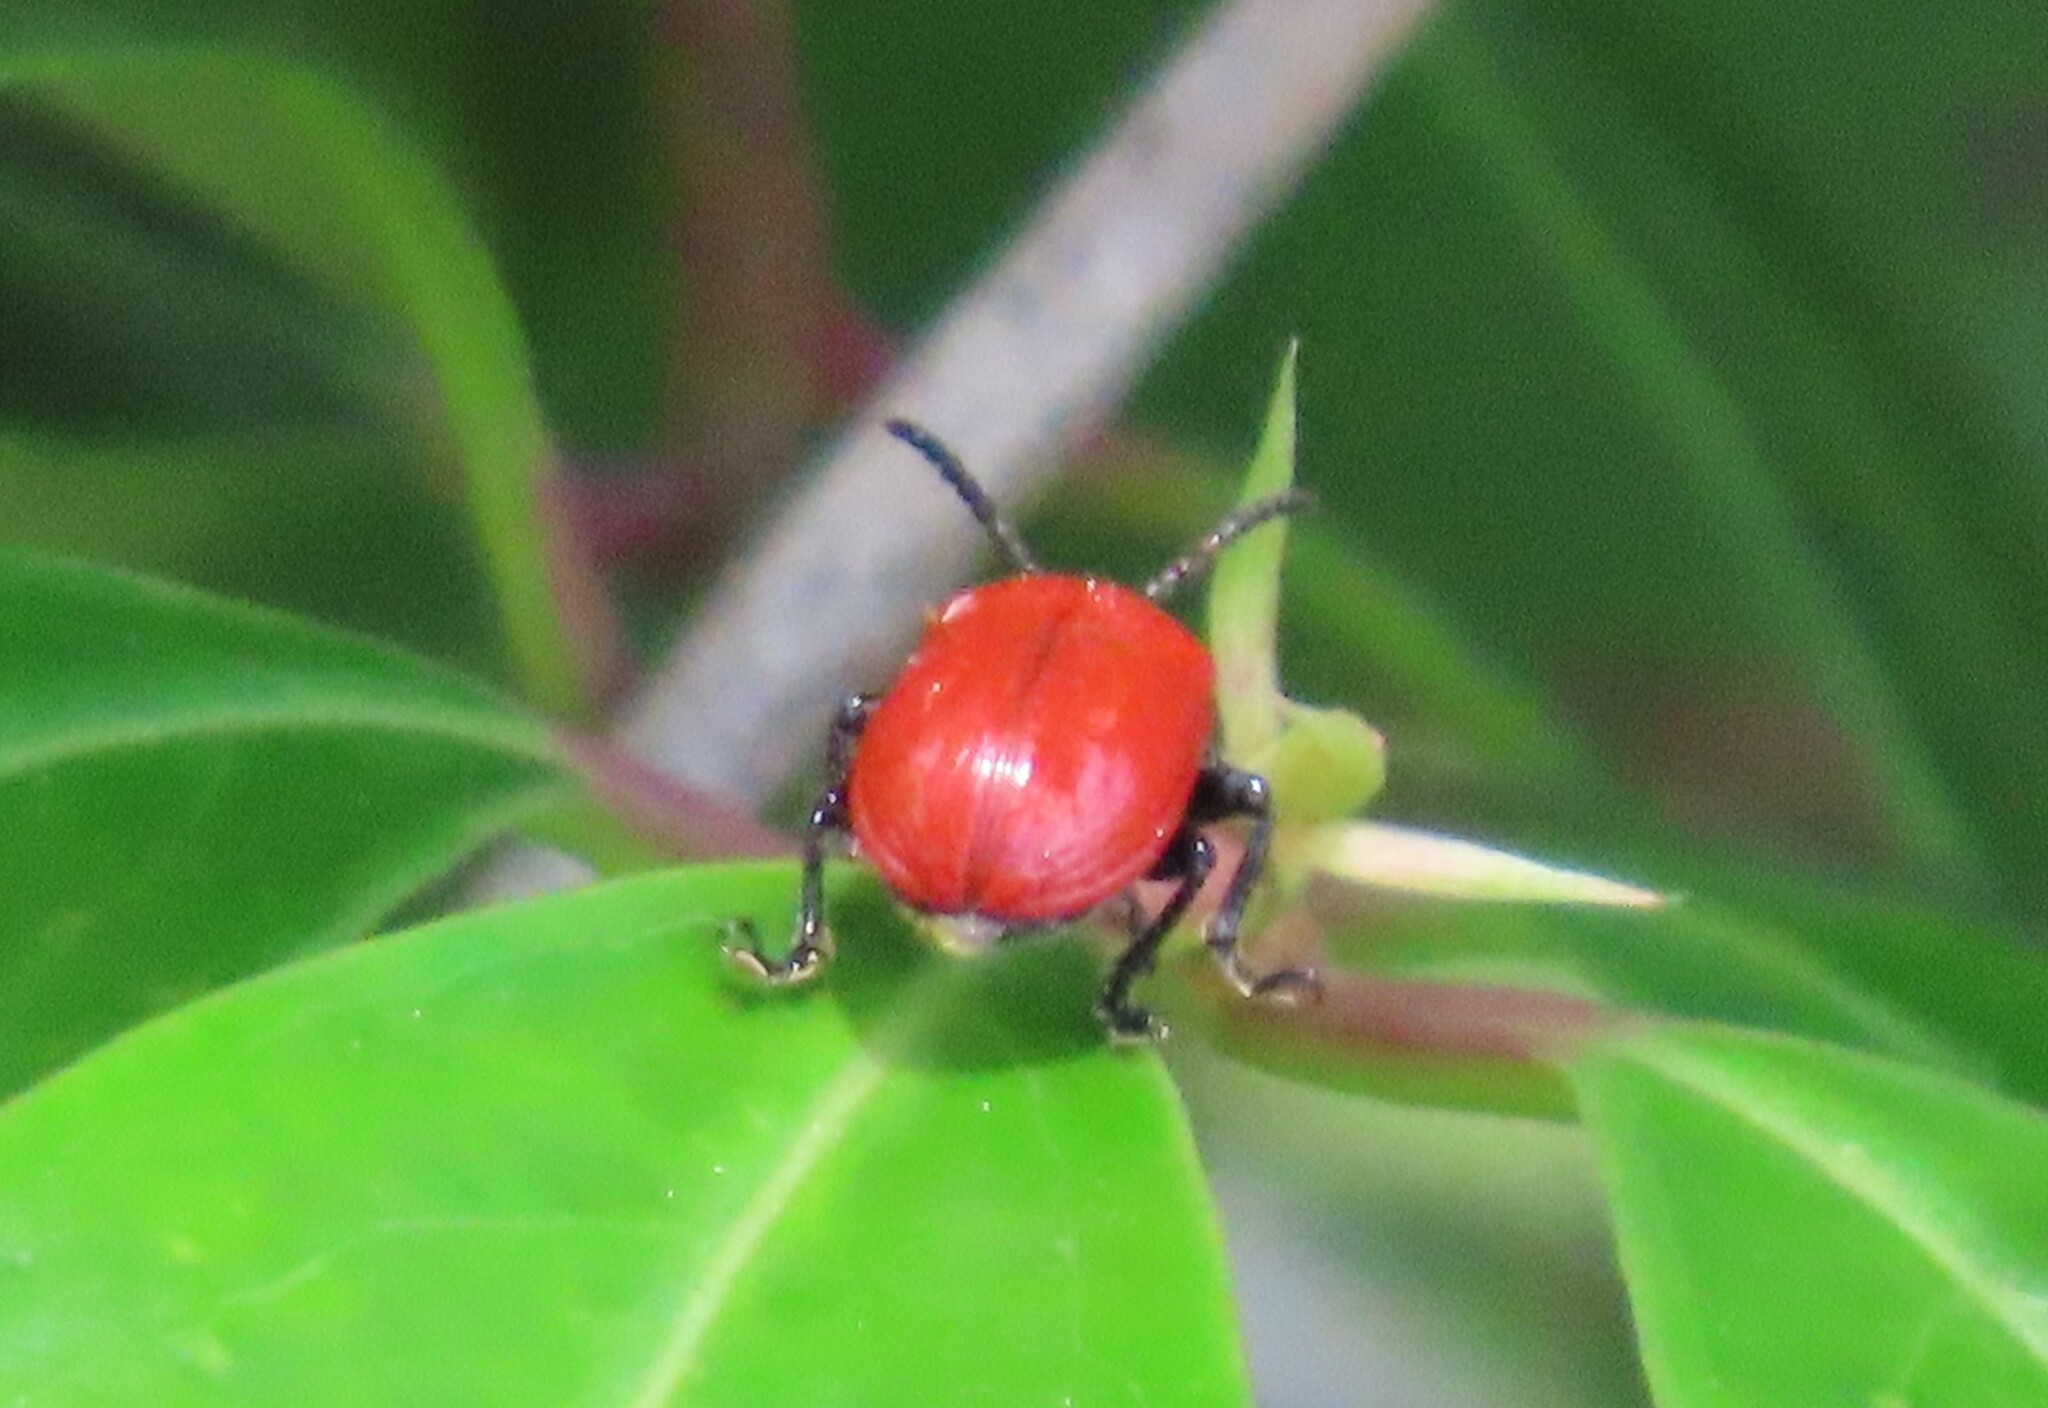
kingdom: Animalia
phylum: Arthropoda
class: Insecta
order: Coleoptera
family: Chrysomelidae
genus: Lilioceris
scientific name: Lilioceris cheni
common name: Leaf beetle
